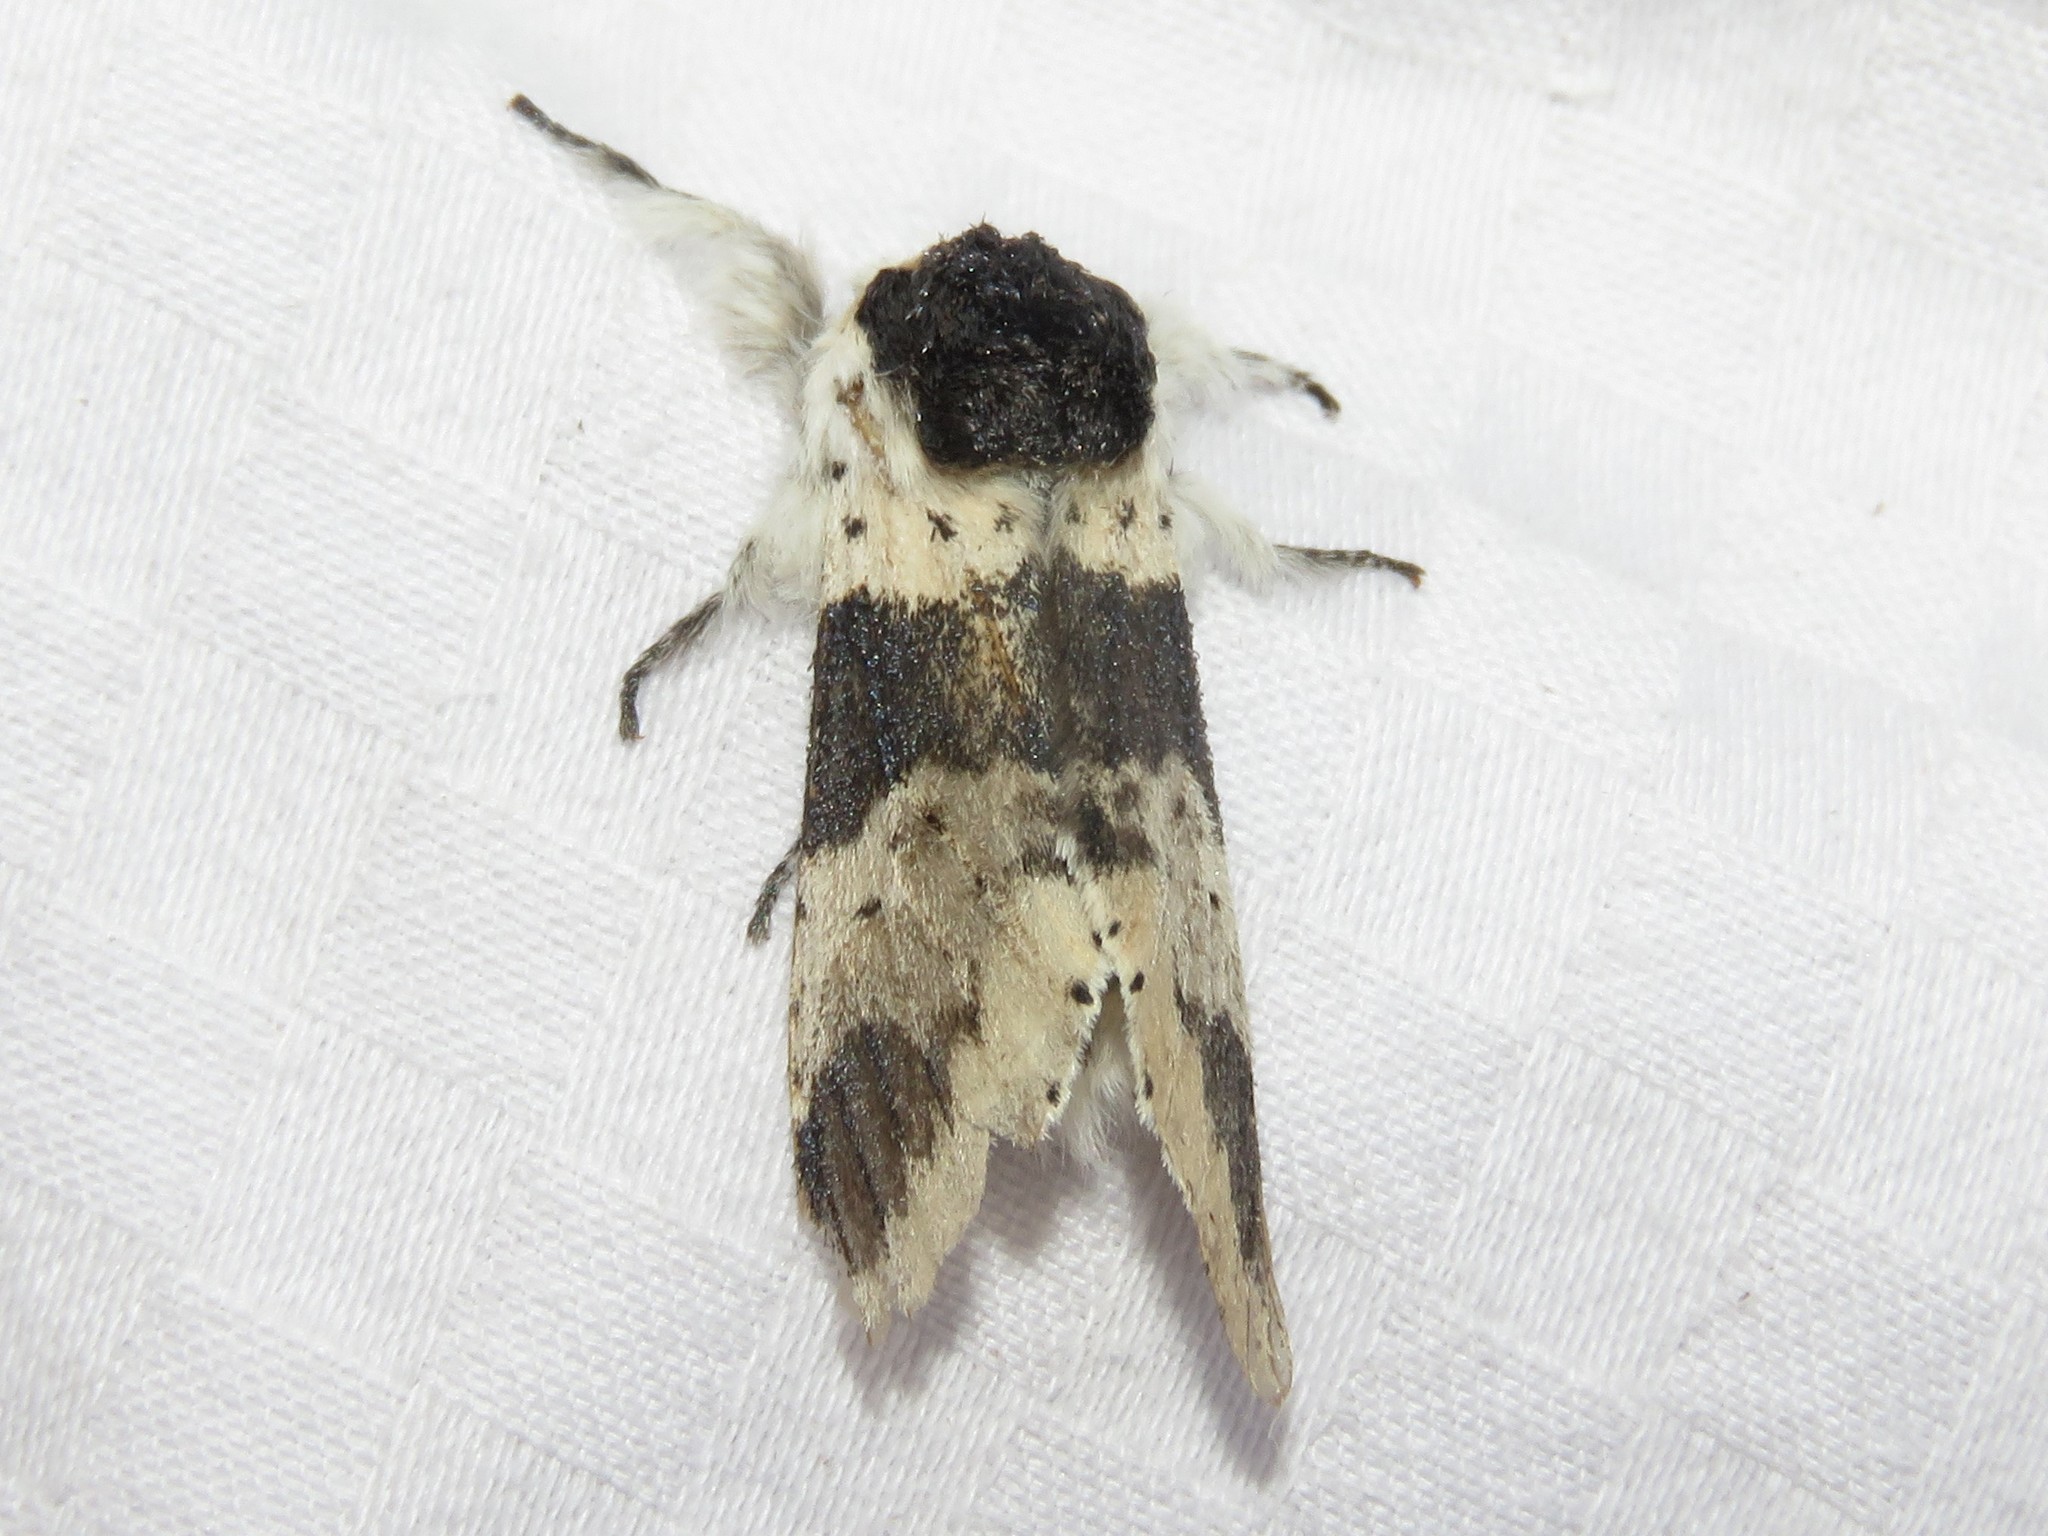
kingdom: Animalia
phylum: Arthropoda
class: Insecta
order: Lepidoptera
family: Notodontidae
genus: Furcula
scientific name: Furcula modesta
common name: Modest furcula moth
